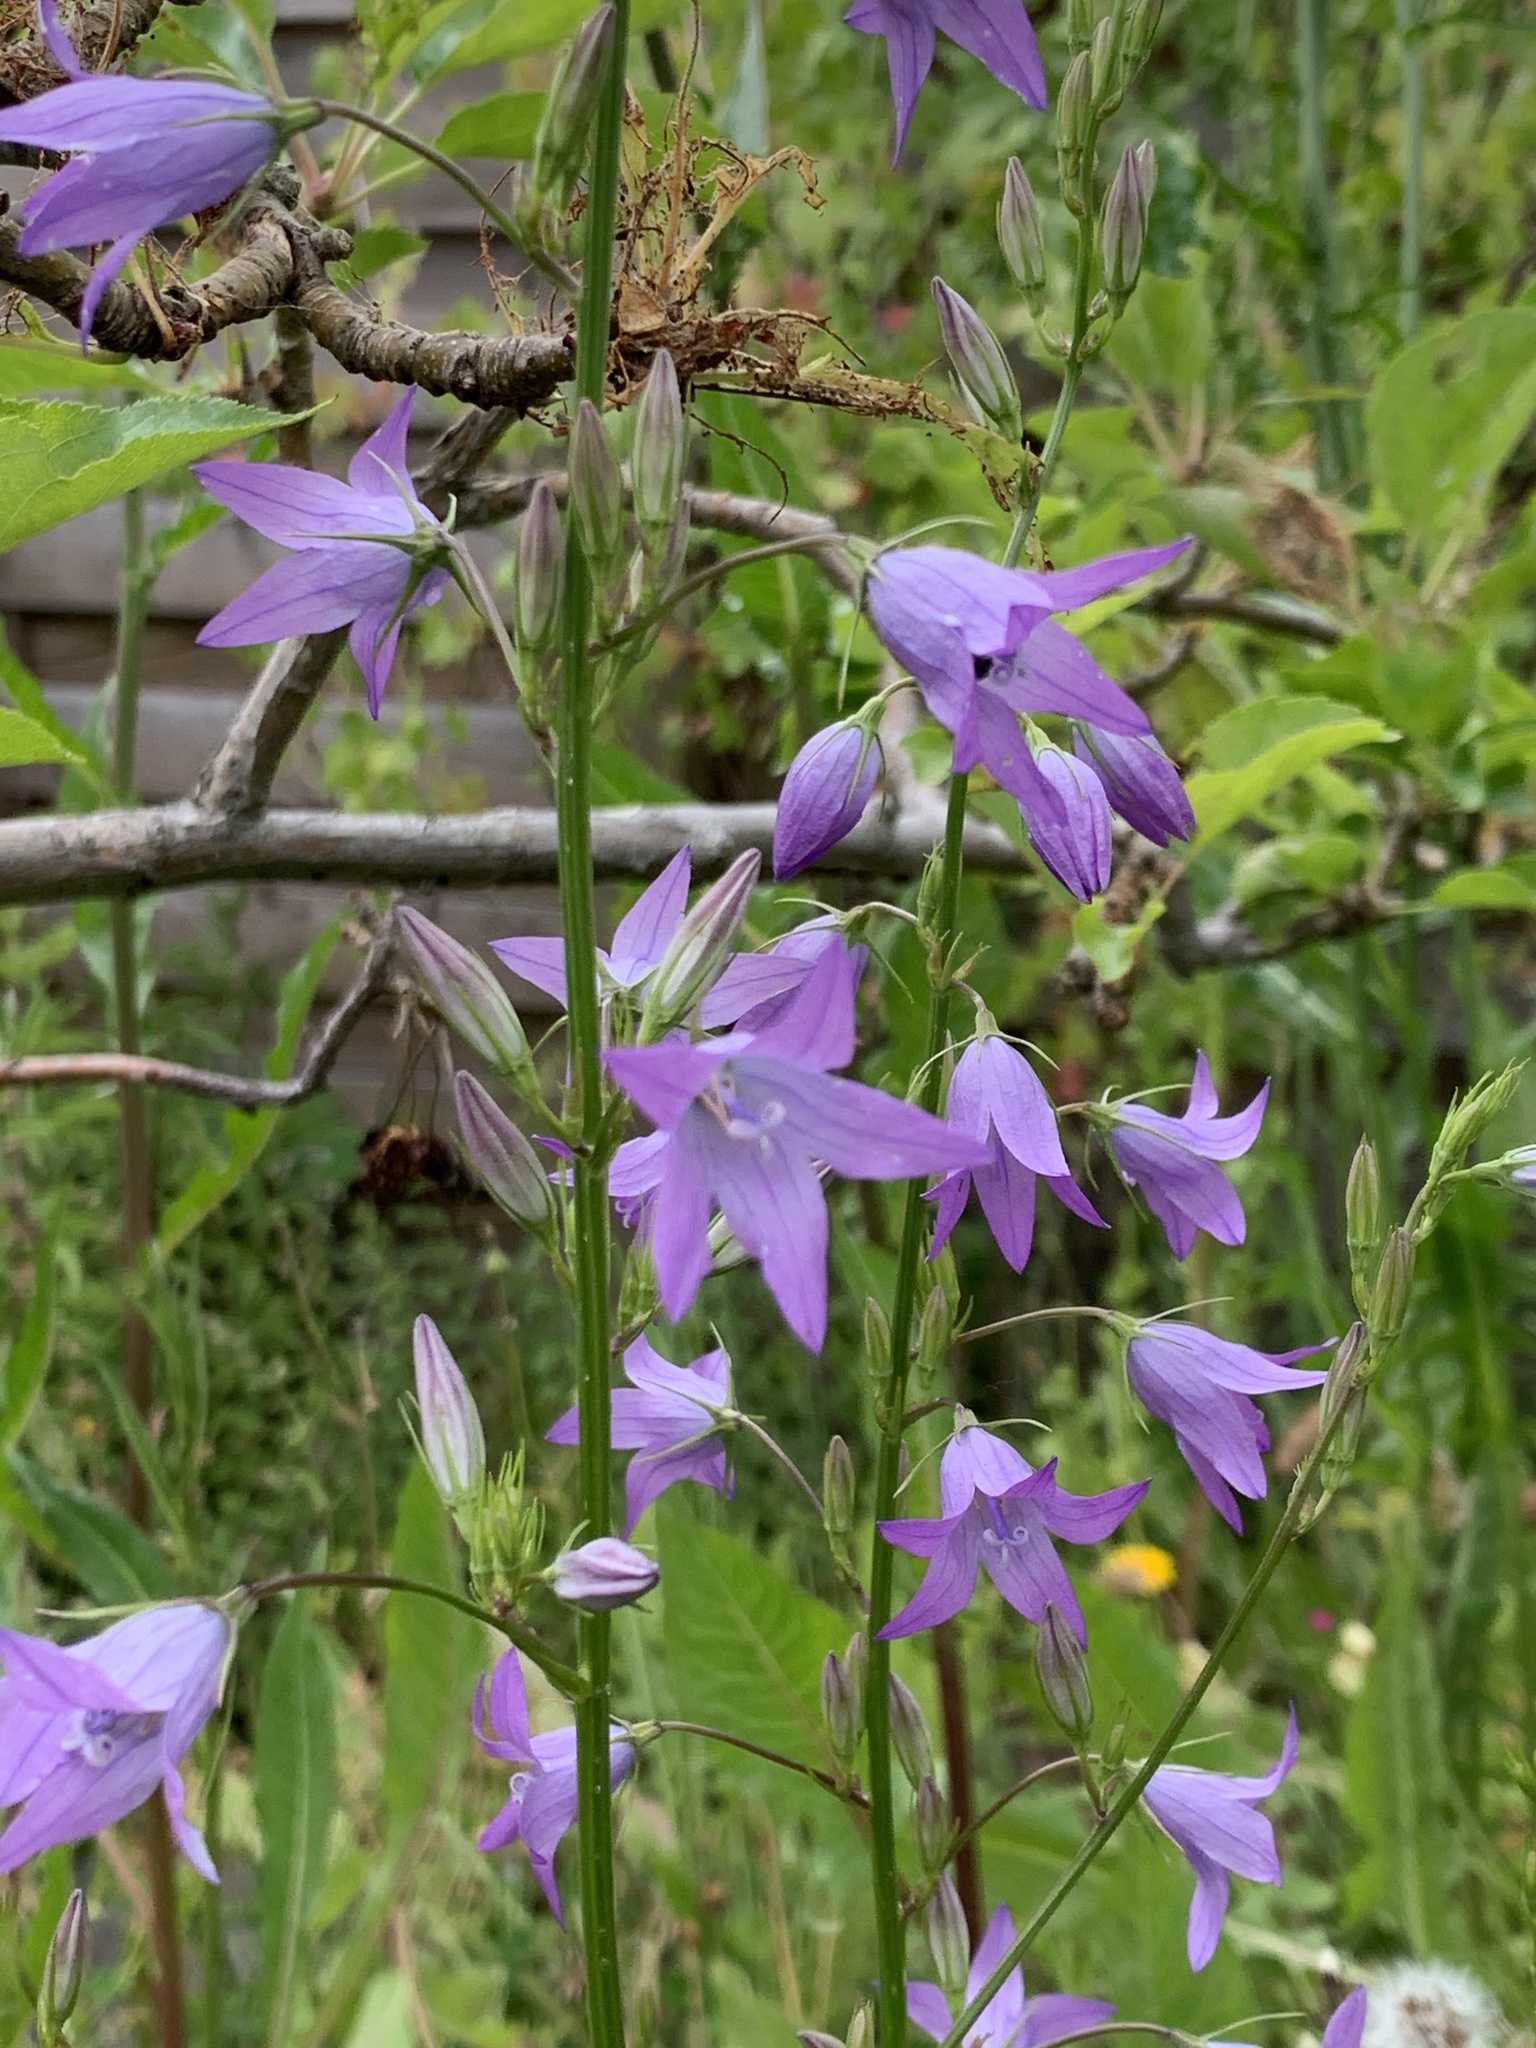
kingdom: Plantae
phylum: Tracheophyta
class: Magnoliopsida
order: Asterales
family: Campanulaceae
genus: Campanula
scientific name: Campanula rapunculus
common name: Rampion bellflower
